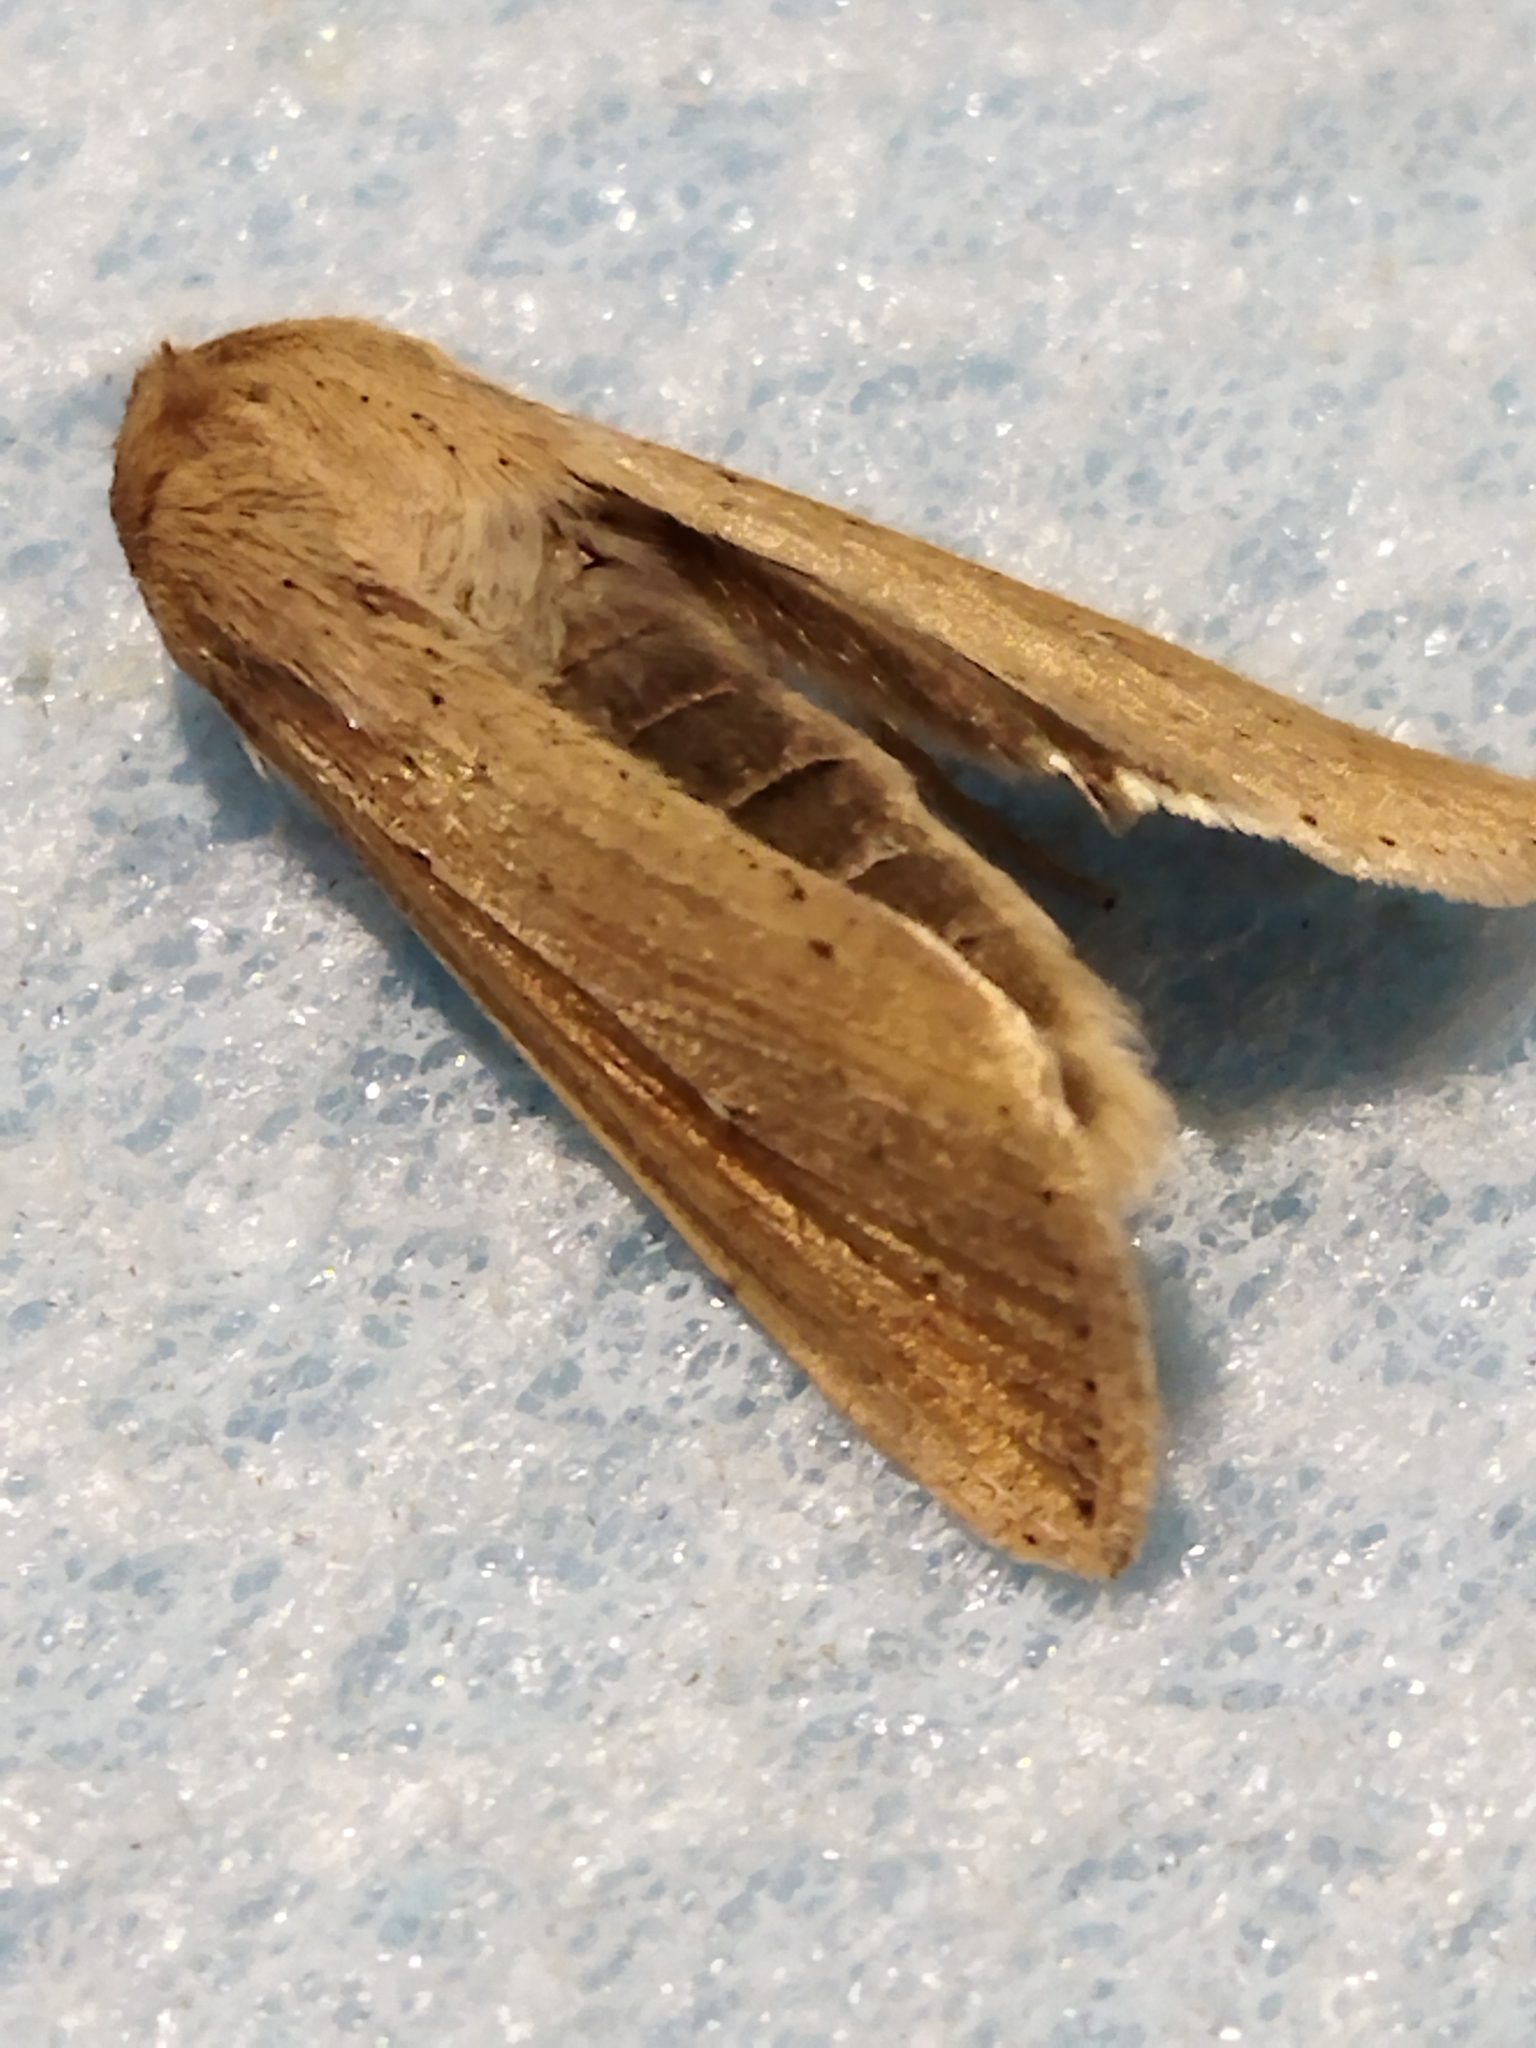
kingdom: Animalia
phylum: Arthropoda
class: Insecta
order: Lepidoptera
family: Noctuidae
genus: Mythimna
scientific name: Mythimna unipuncta
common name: White-speck
